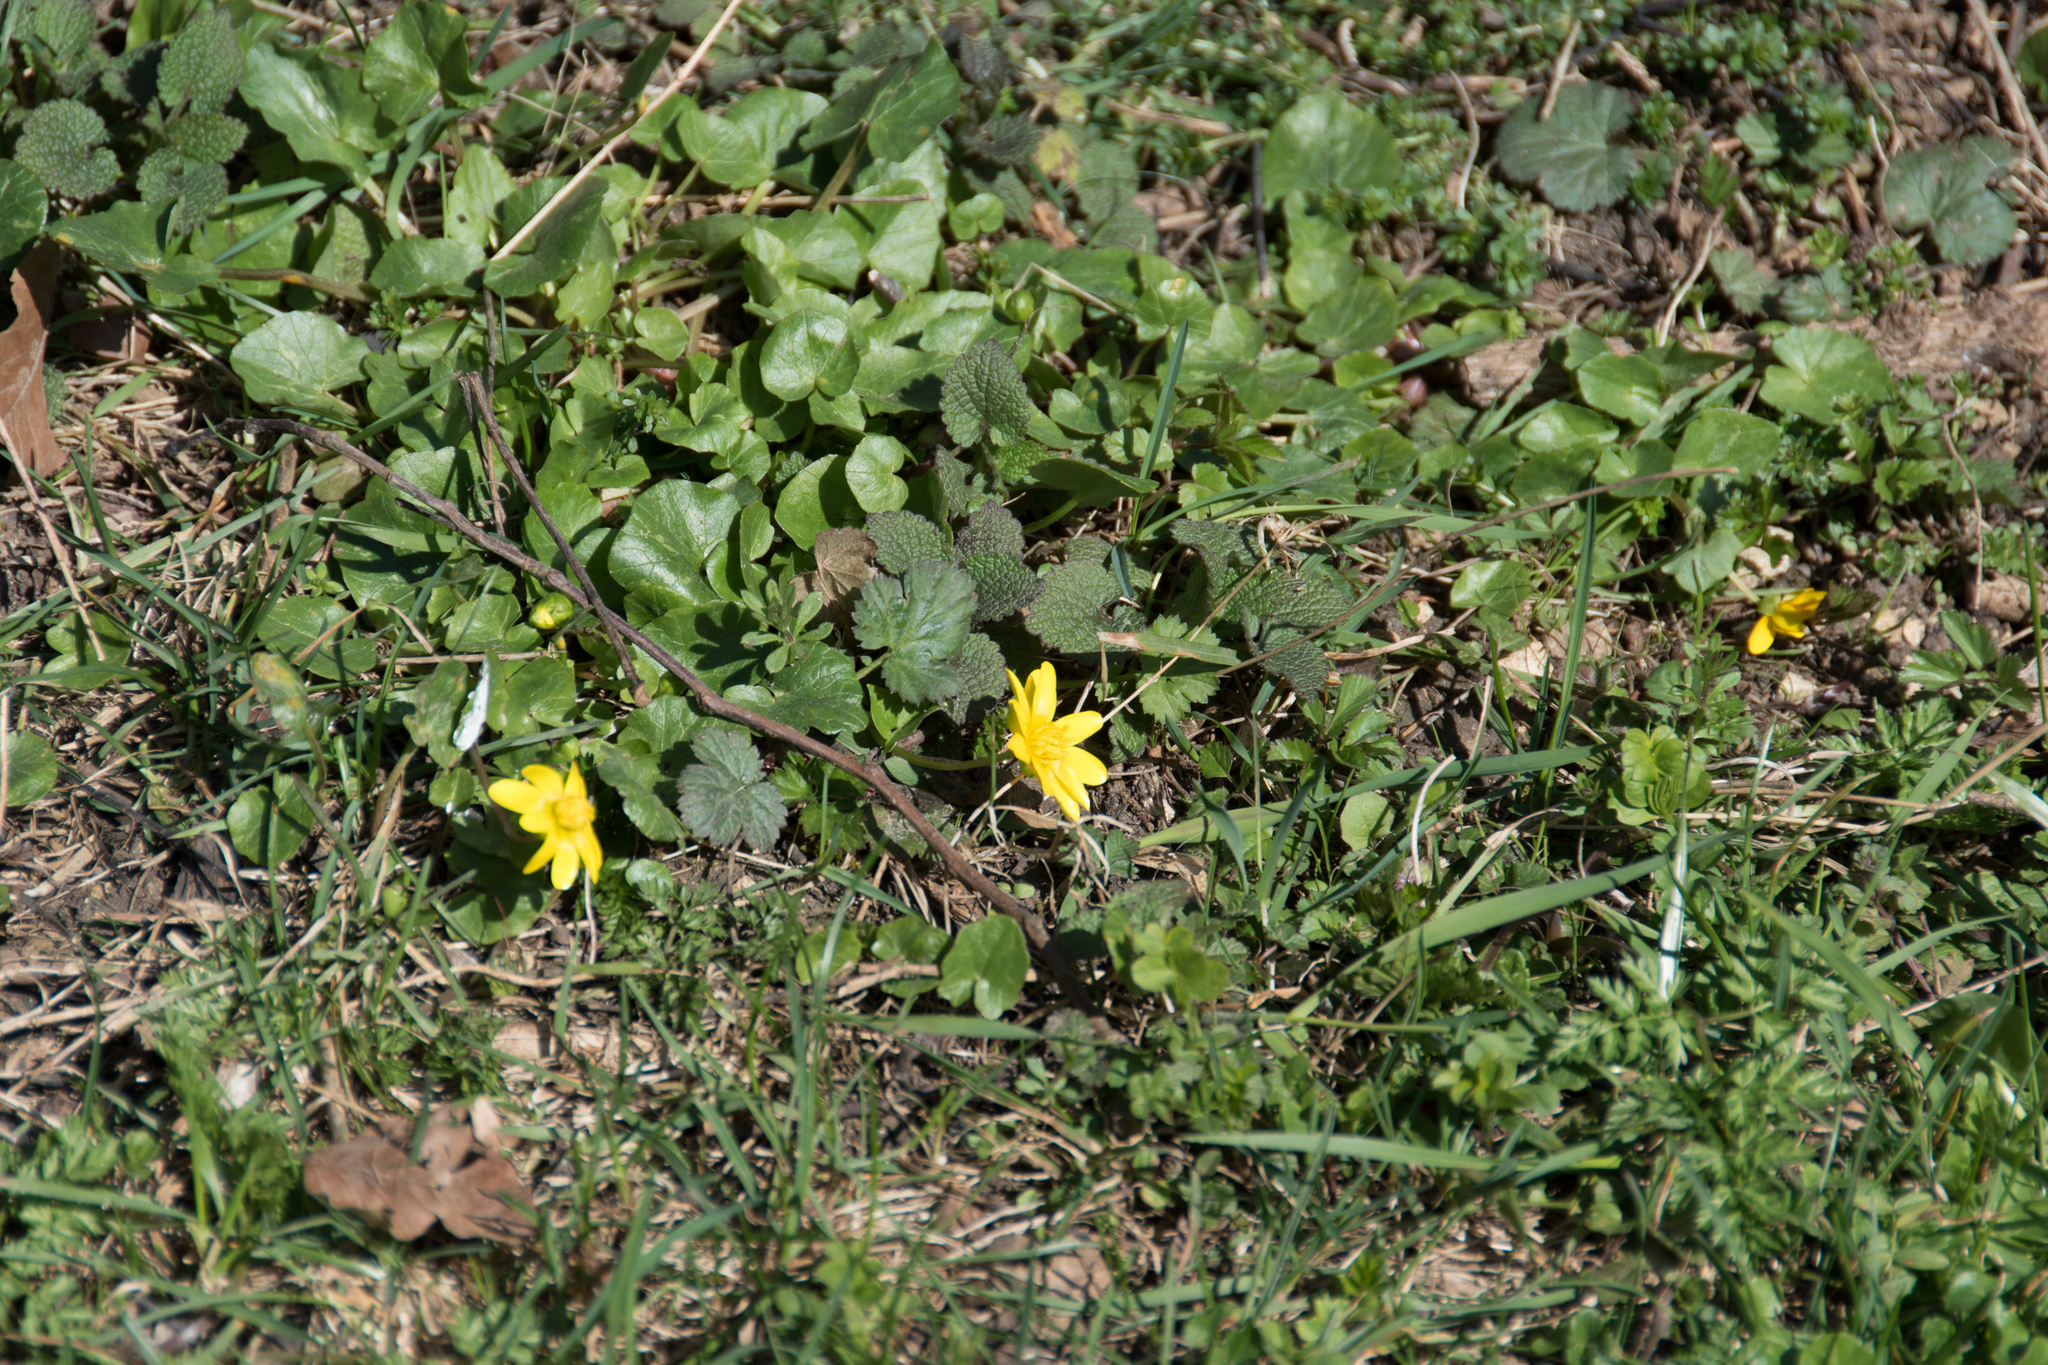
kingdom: Plantae
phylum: Tracheophyta
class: Magnoliopsida
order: Ranunculales
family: Ranunculaceae
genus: Ficaria
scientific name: Ficaria verna
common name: Lesser celandine
